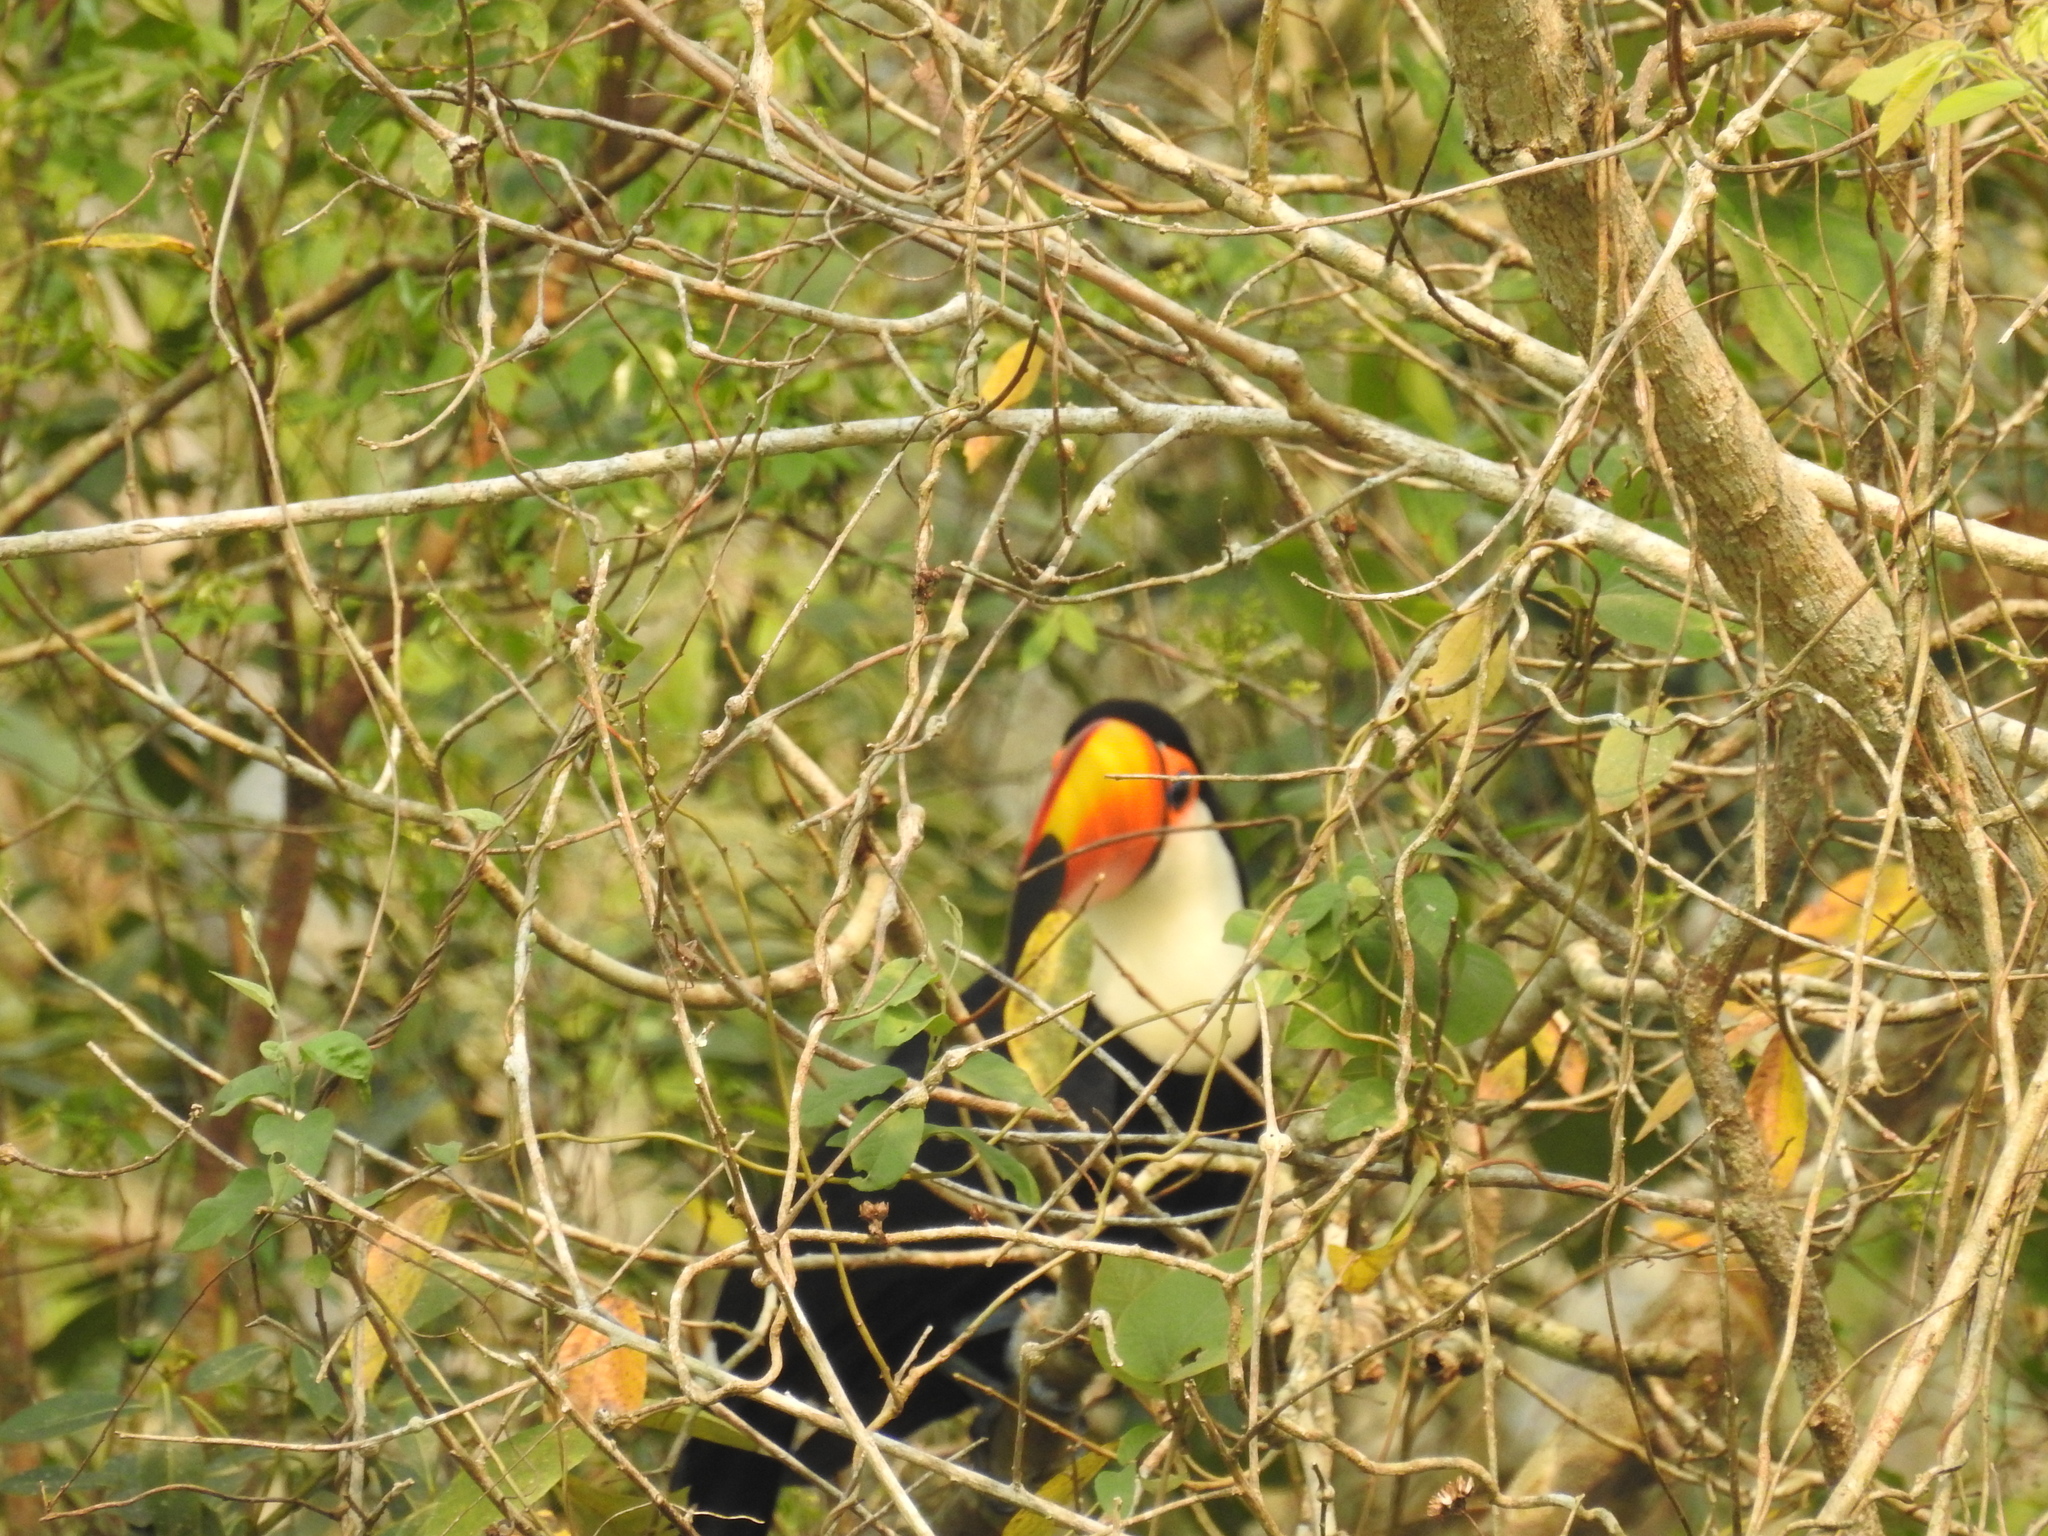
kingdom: Animalia
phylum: Chordata
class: Aves
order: Piciformes
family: Ramphastidae
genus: Ramphastos
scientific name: Ramphastos toco
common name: Toco toucan
